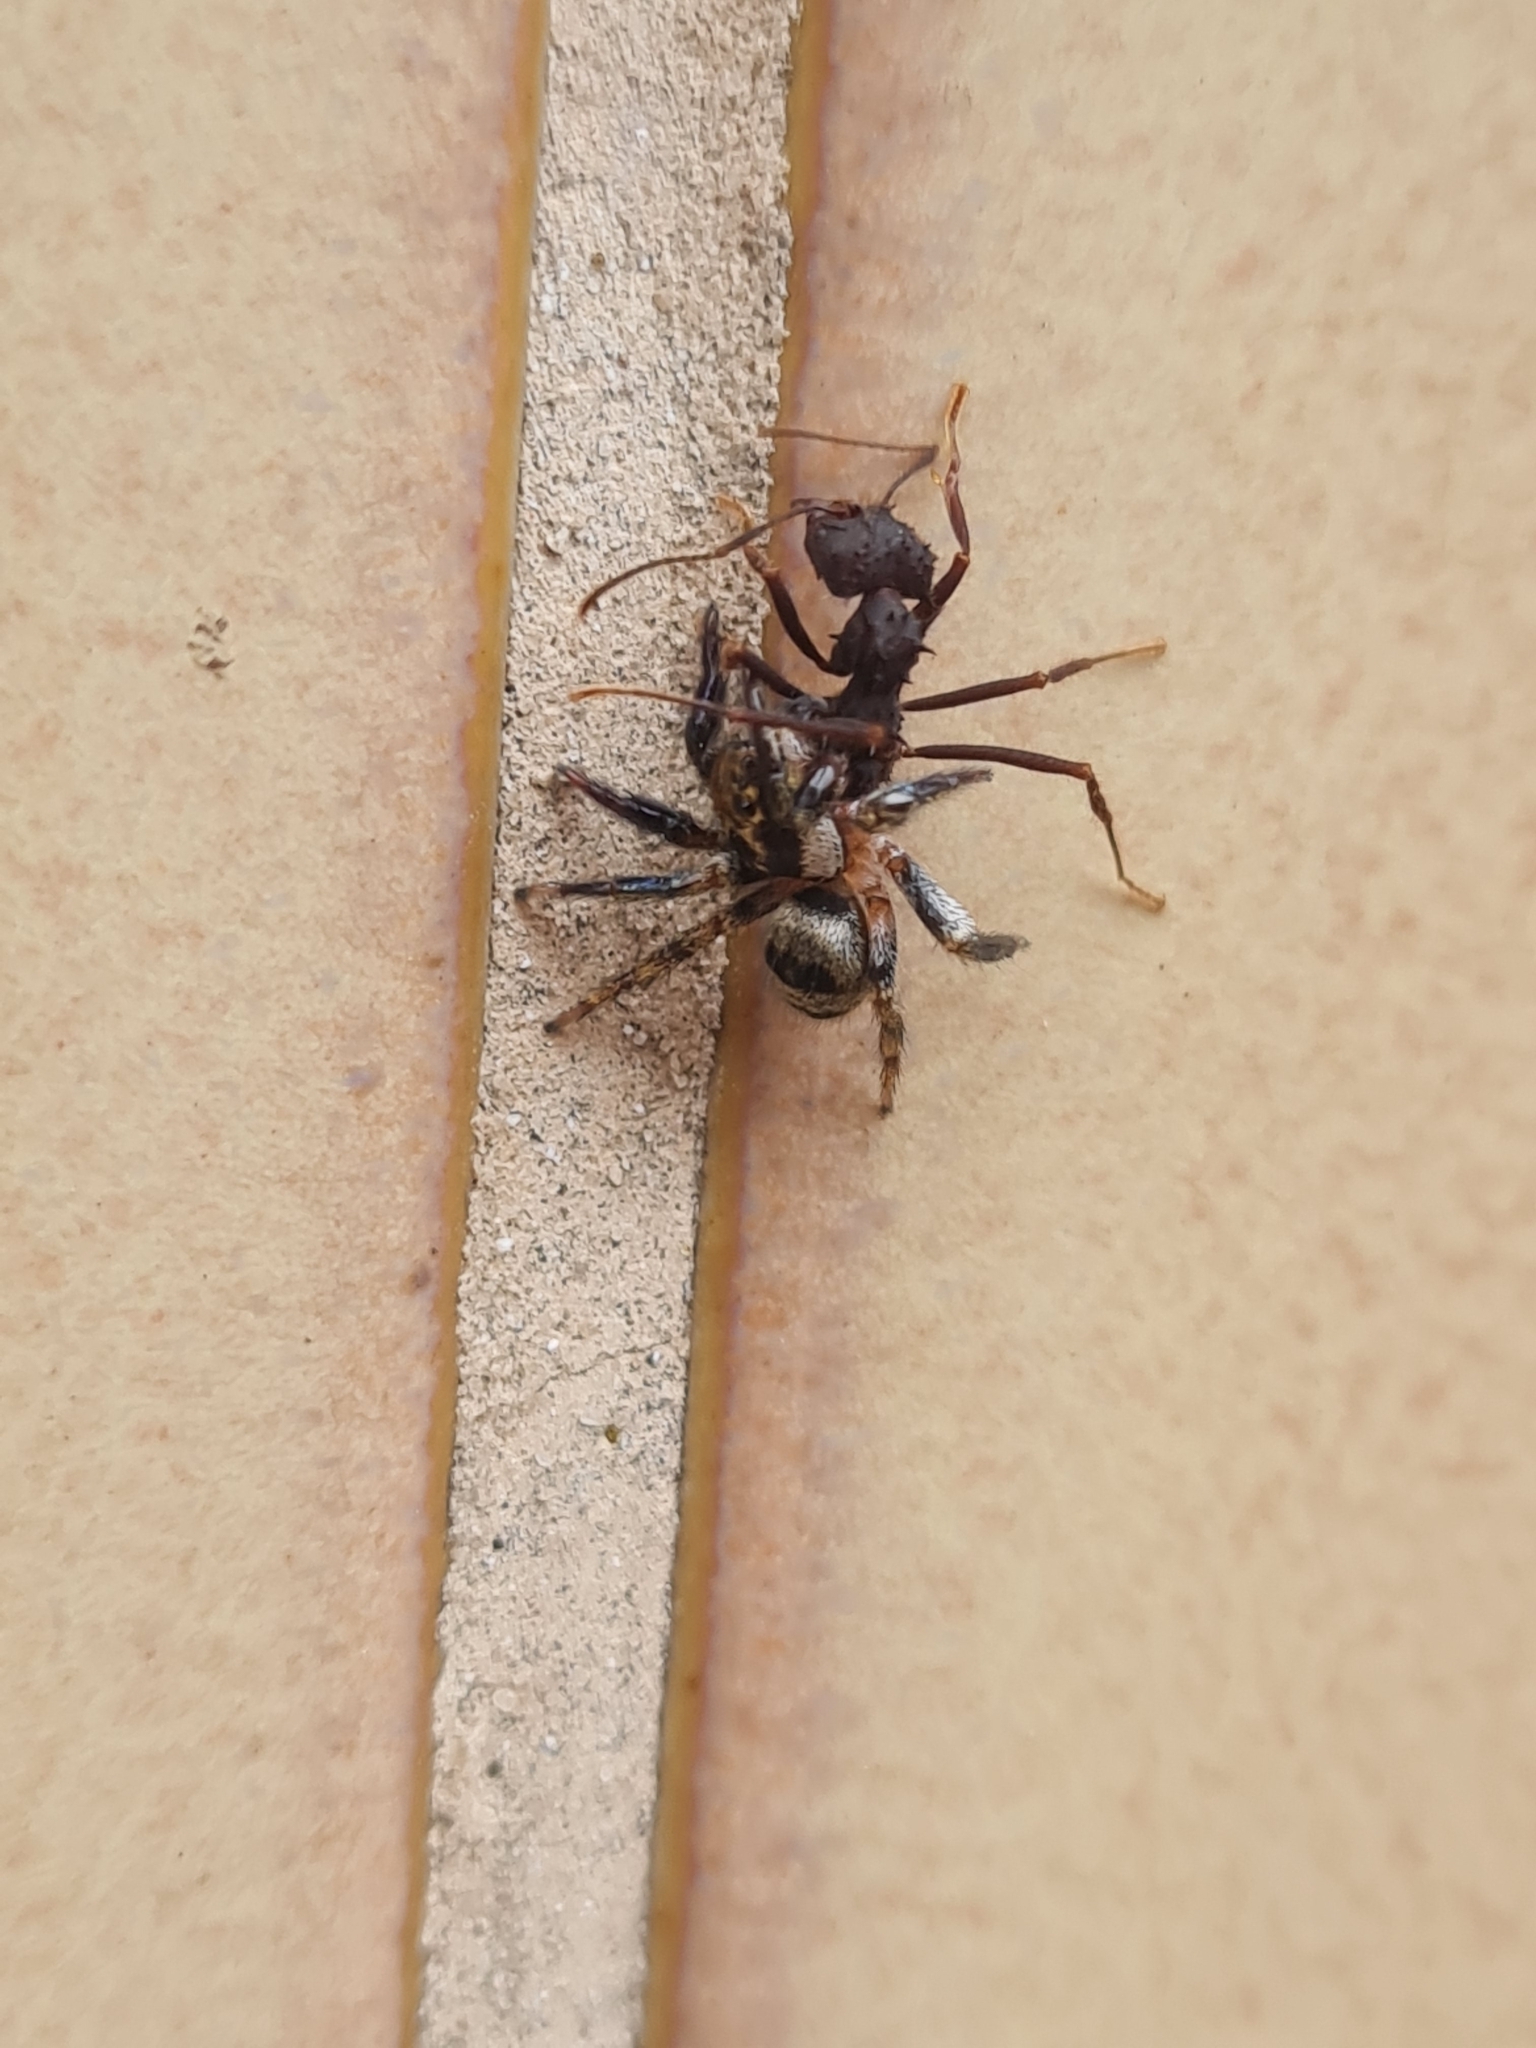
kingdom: Animalia
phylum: Arthropoda
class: Arachnida
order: Araneae
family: Salticidae
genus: Corythalia
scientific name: Corythalia conferta
